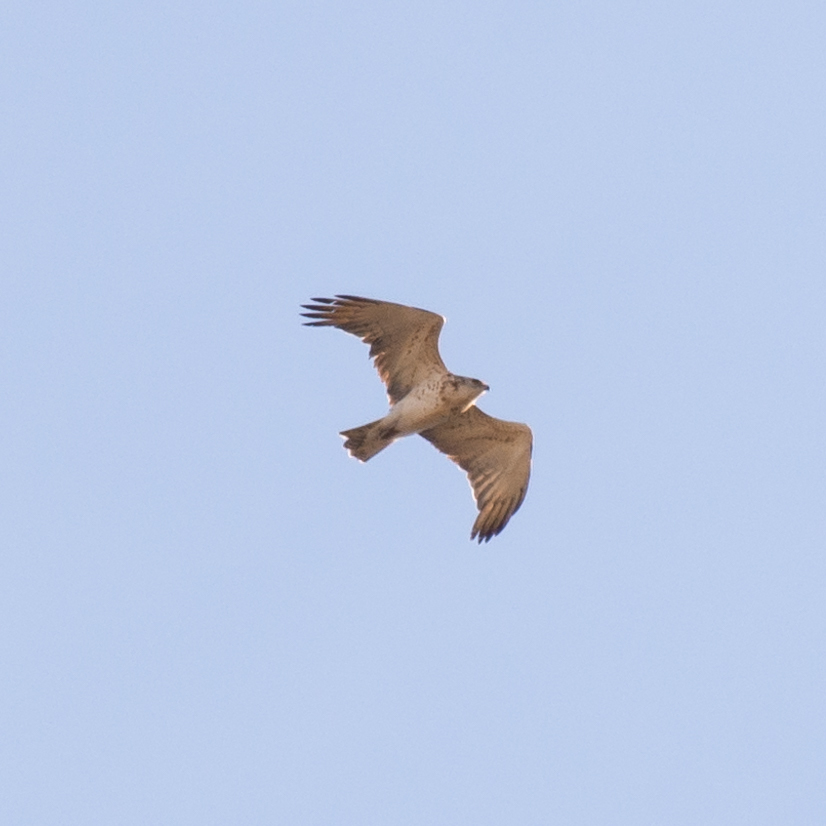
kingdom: Animalia
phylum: Chordata
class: Aves
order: Accipitriformes
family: Accipitridae
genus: Circaetus
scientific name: Circaetus gallicus
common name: Short-toed snake eagle
